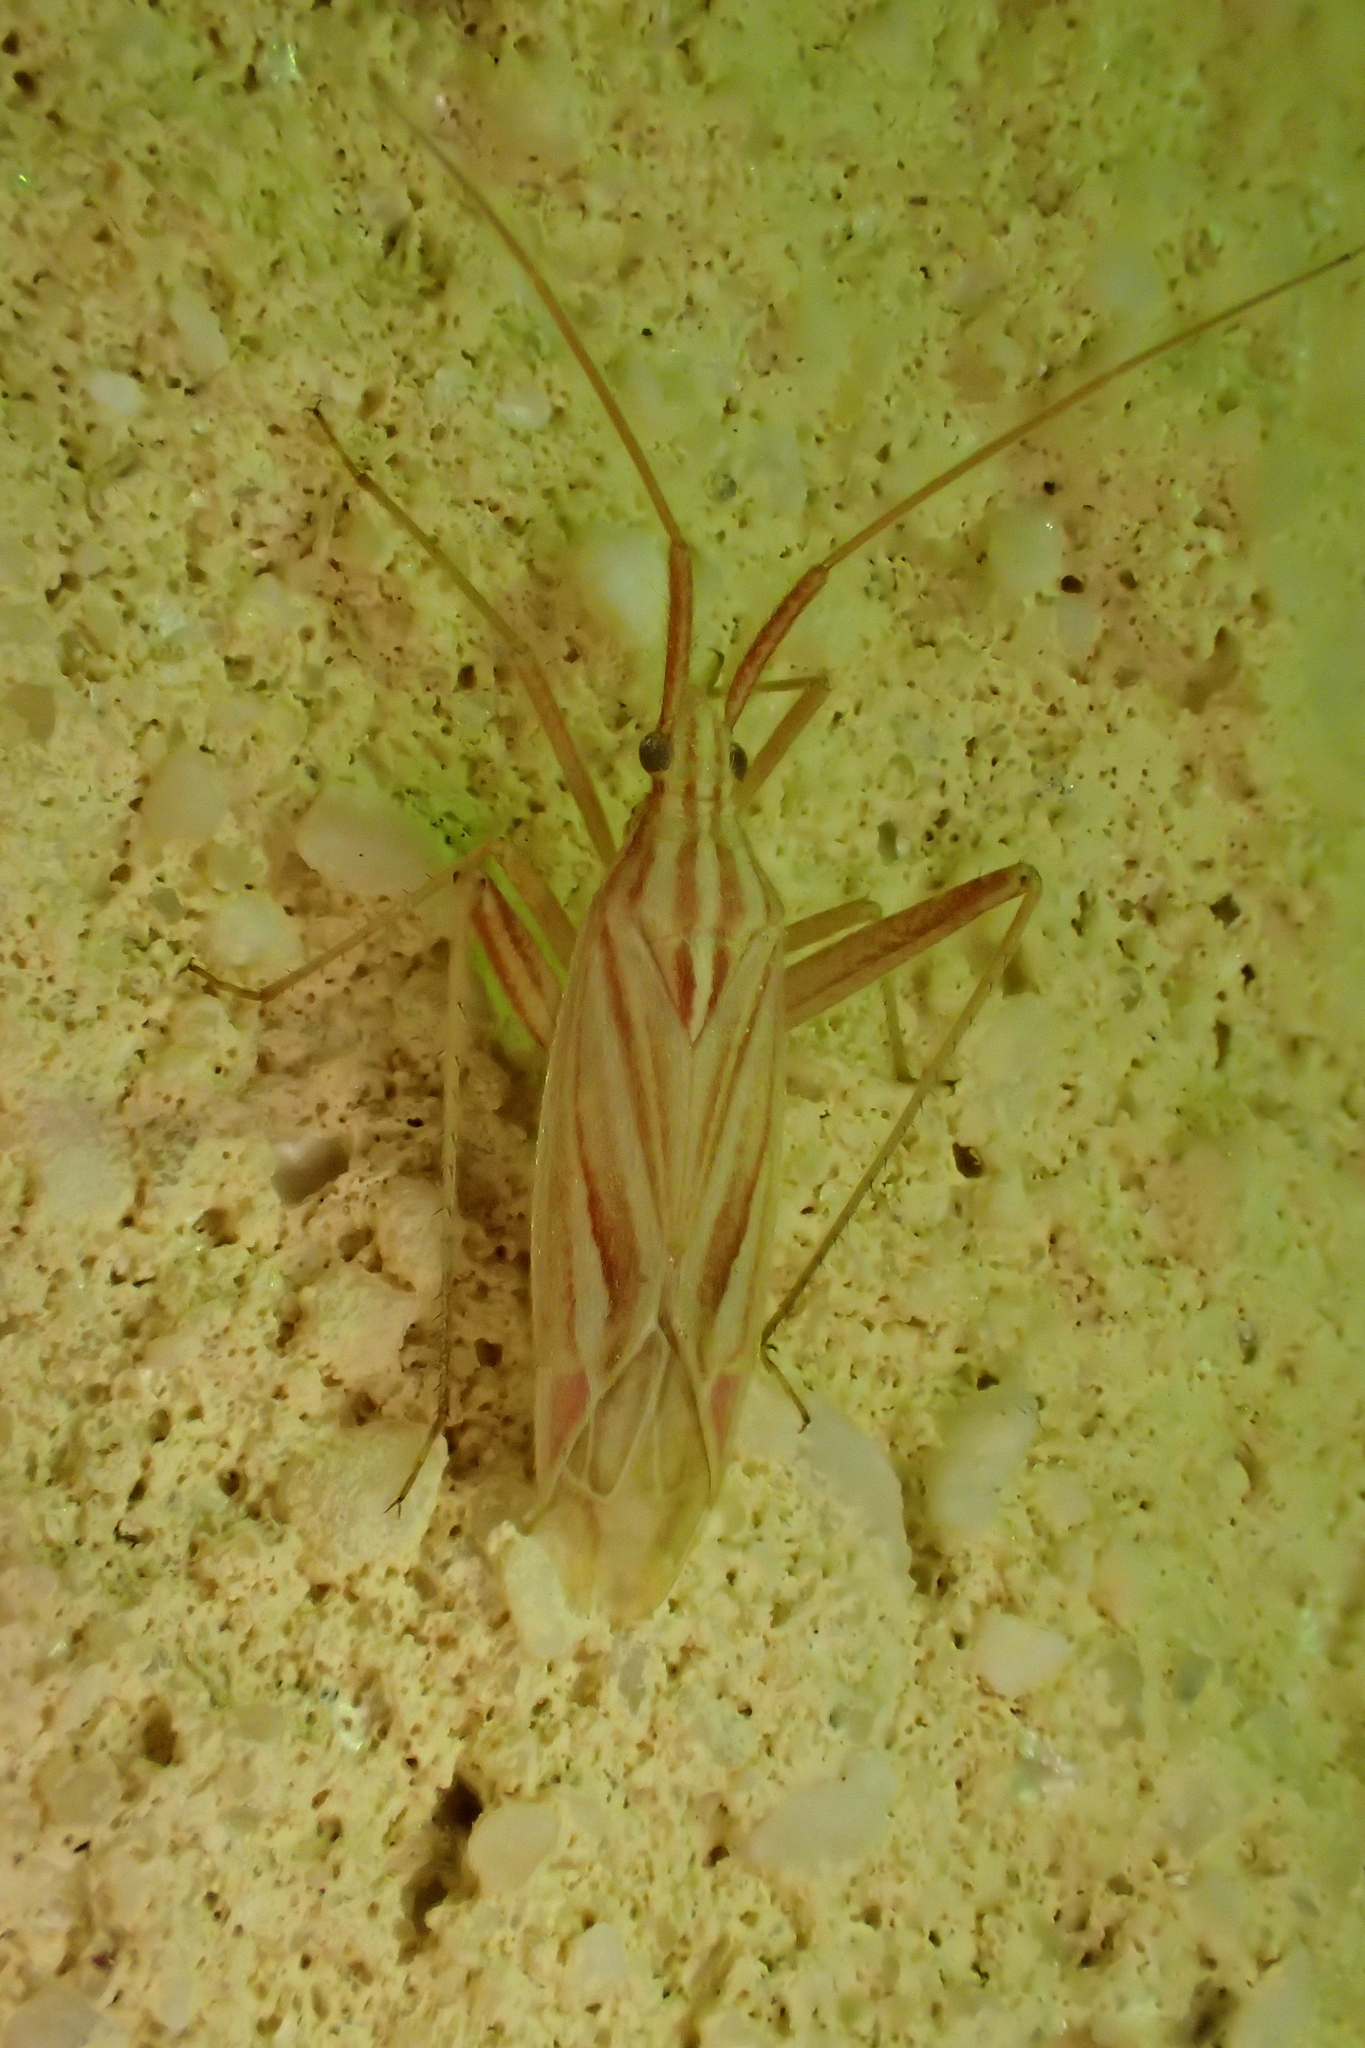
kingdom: Animalia
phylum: Arthropoda
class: Insecta
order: Hemiptera
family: Miridae
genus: Miridius
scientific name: Miridius quadrivirgatus
